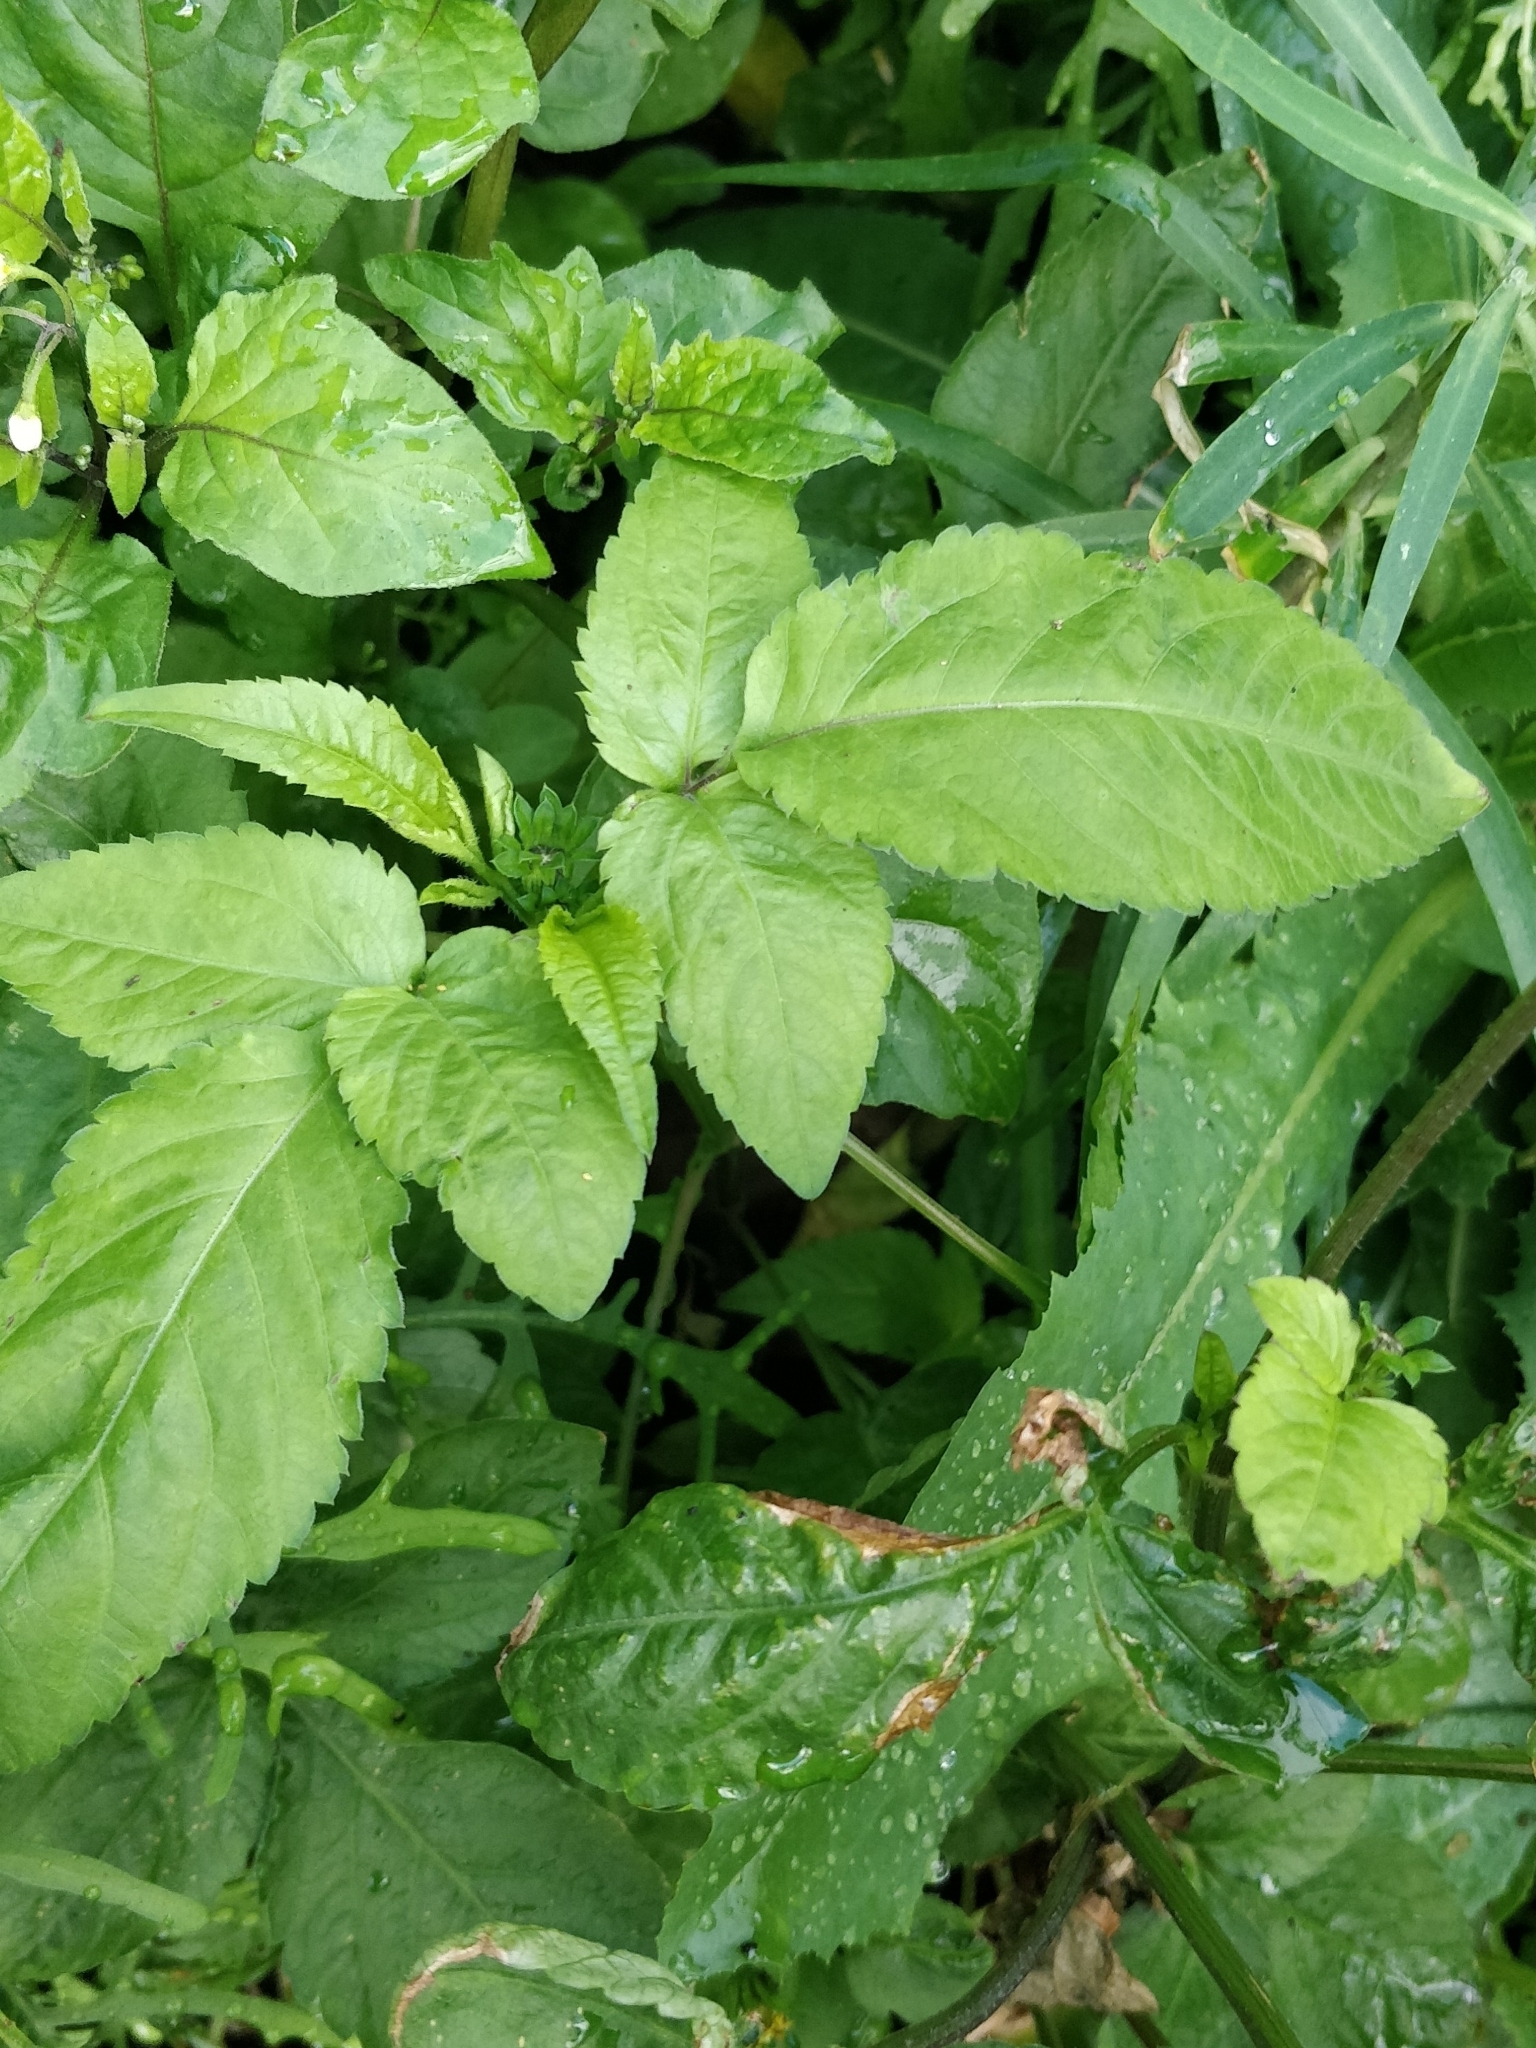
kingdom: Plantae
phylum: Tracheophyta
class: Magnoliopsida
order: Asterales
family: Asteraceae
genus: Bidens
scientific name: Bidens pilosa
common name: Black-jack
